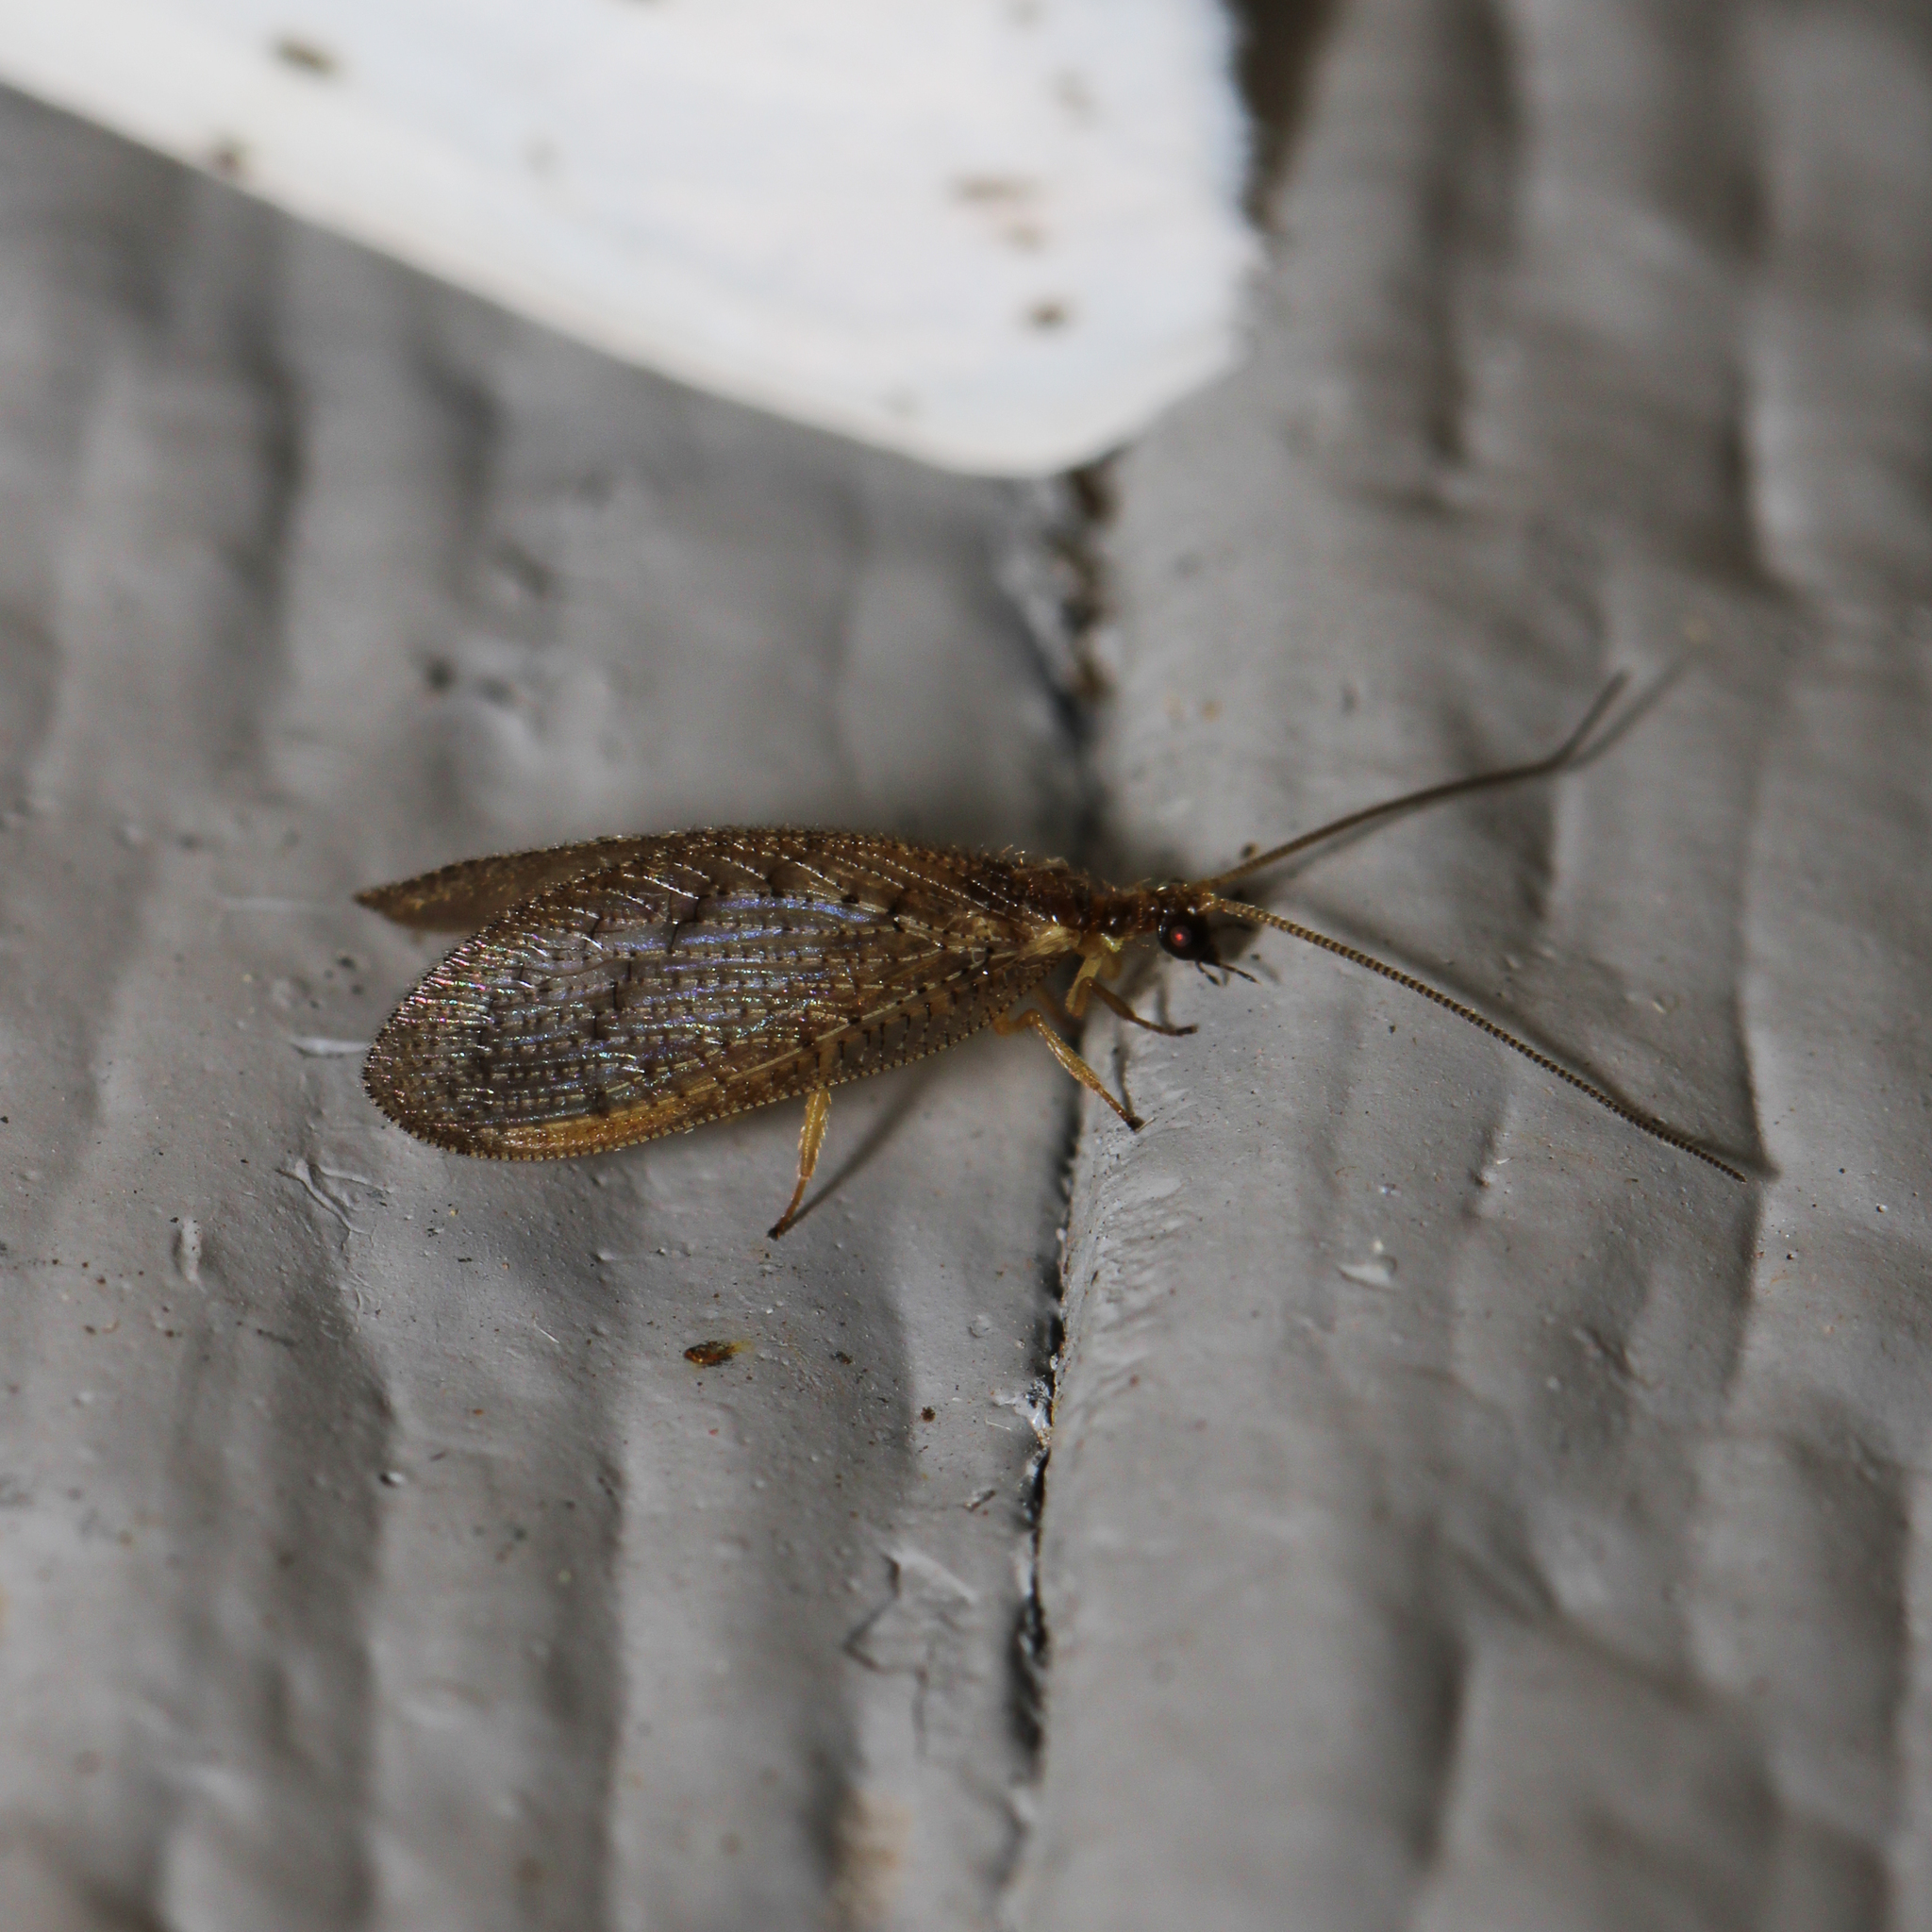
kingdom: Animalia
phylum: Arthropoda
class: Insecta
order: Neuroptera
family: Hemerobiidae
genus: Hemerobius
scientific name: Hemerobius stigma
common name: Brown pine lacewing
